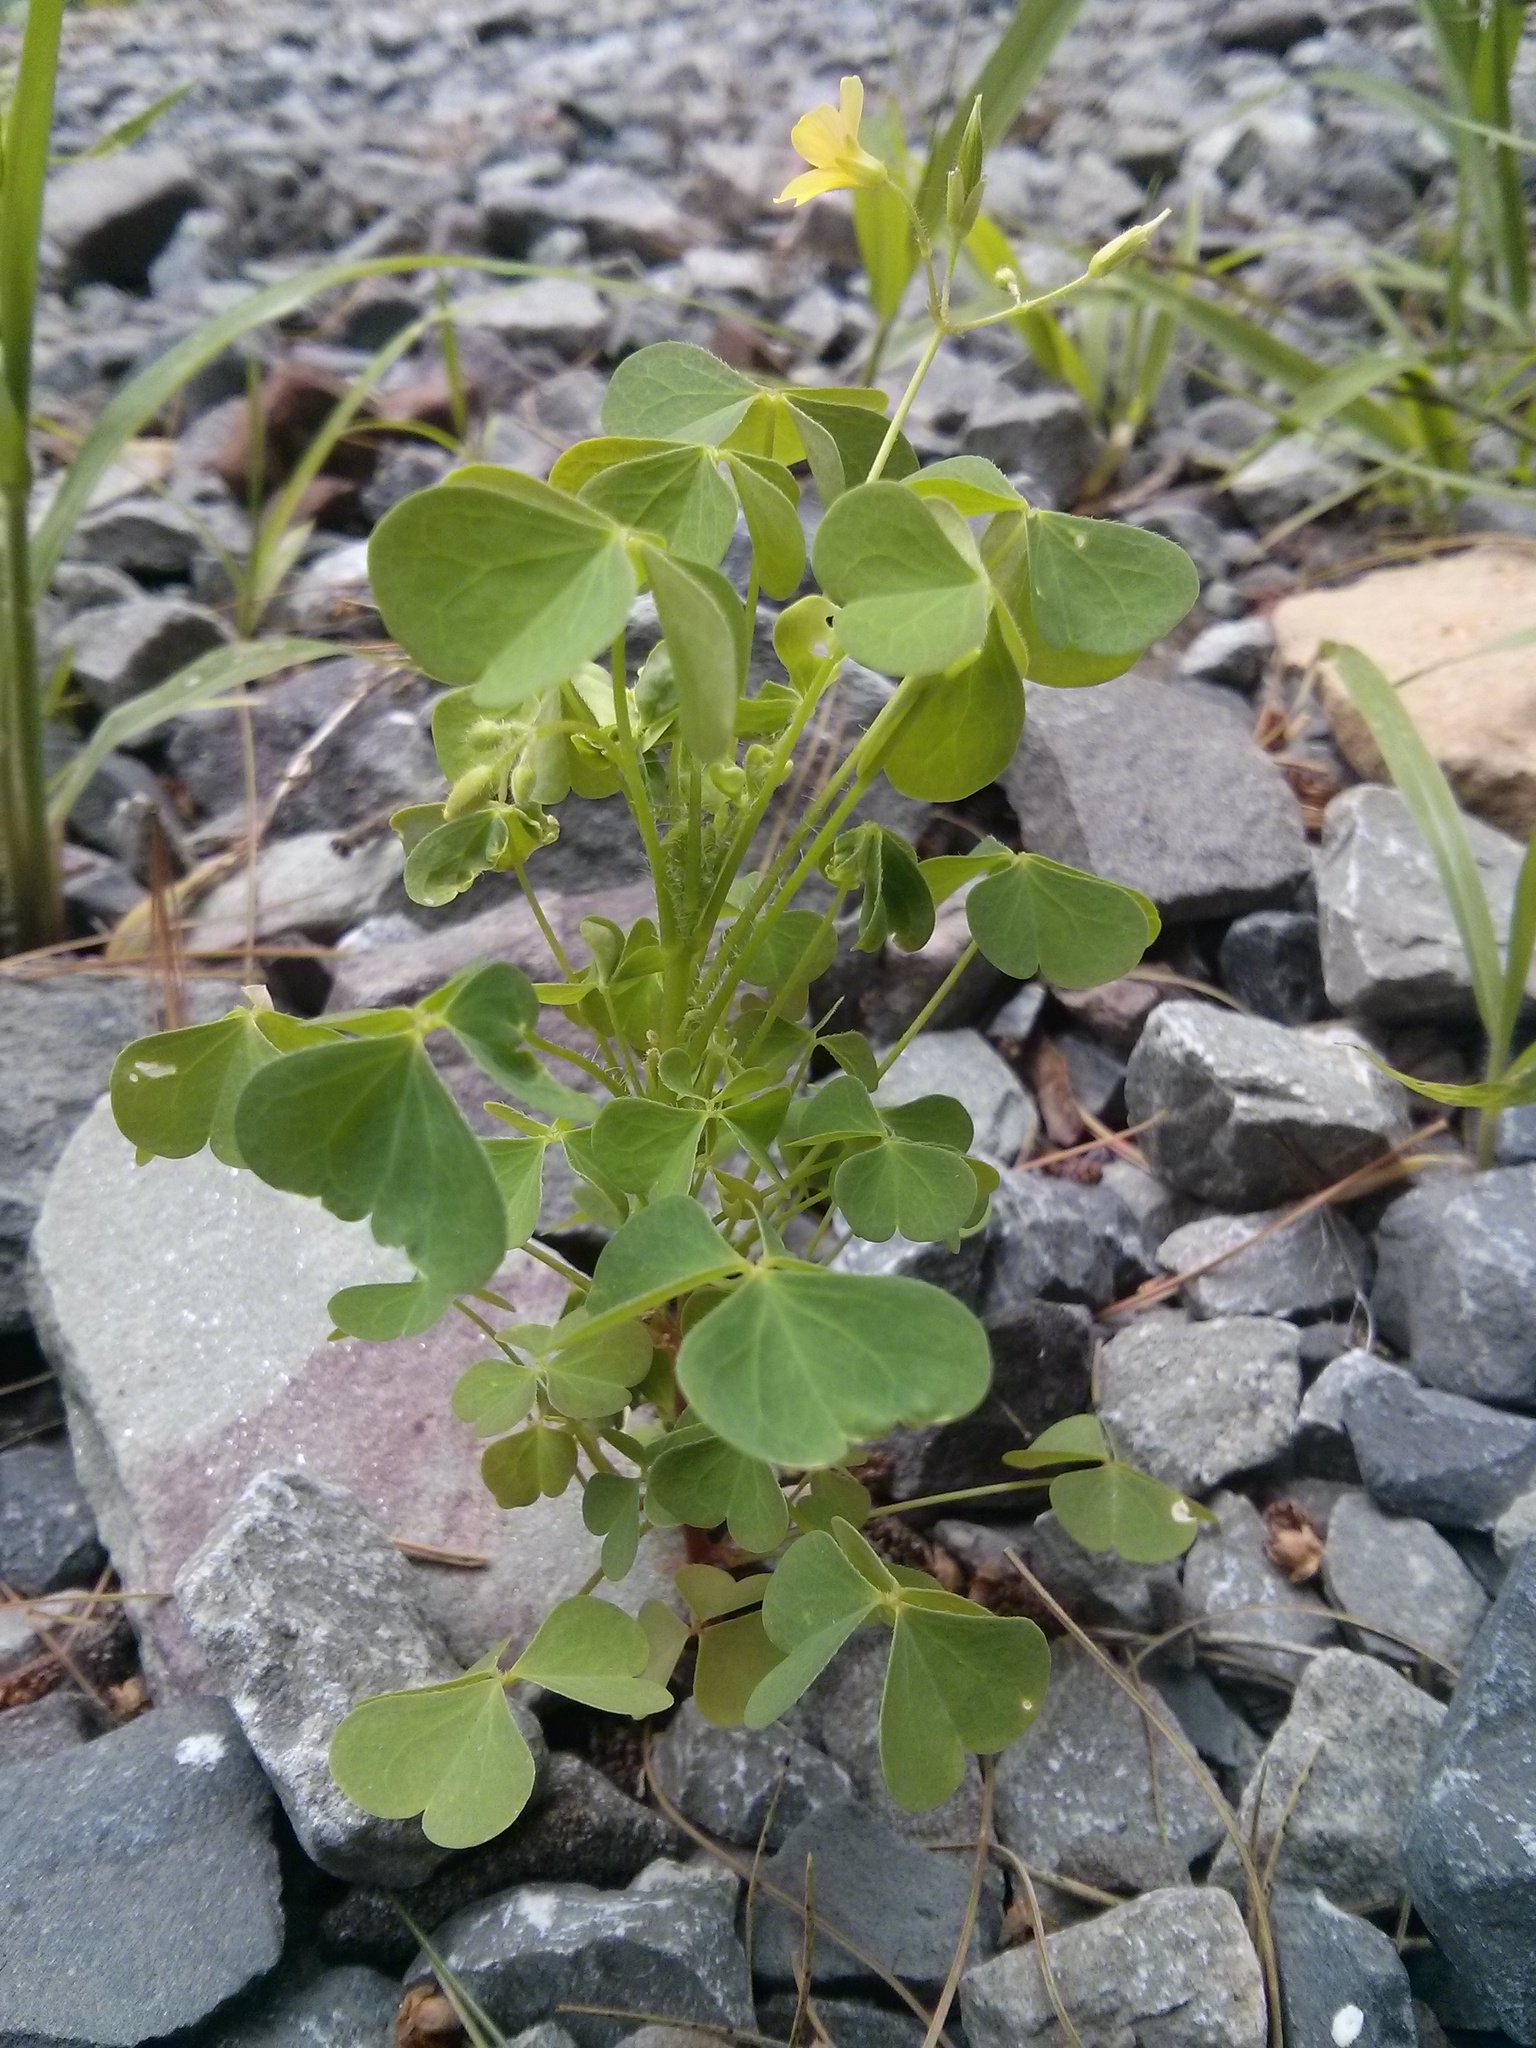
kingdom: Plantae
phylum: Tracheophyta
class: Magnoliopsida
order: Oxalidales
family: Oxalidaceae
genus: Oxalis
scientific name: Oxalis stricta
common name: Upright yellow-sorrel
